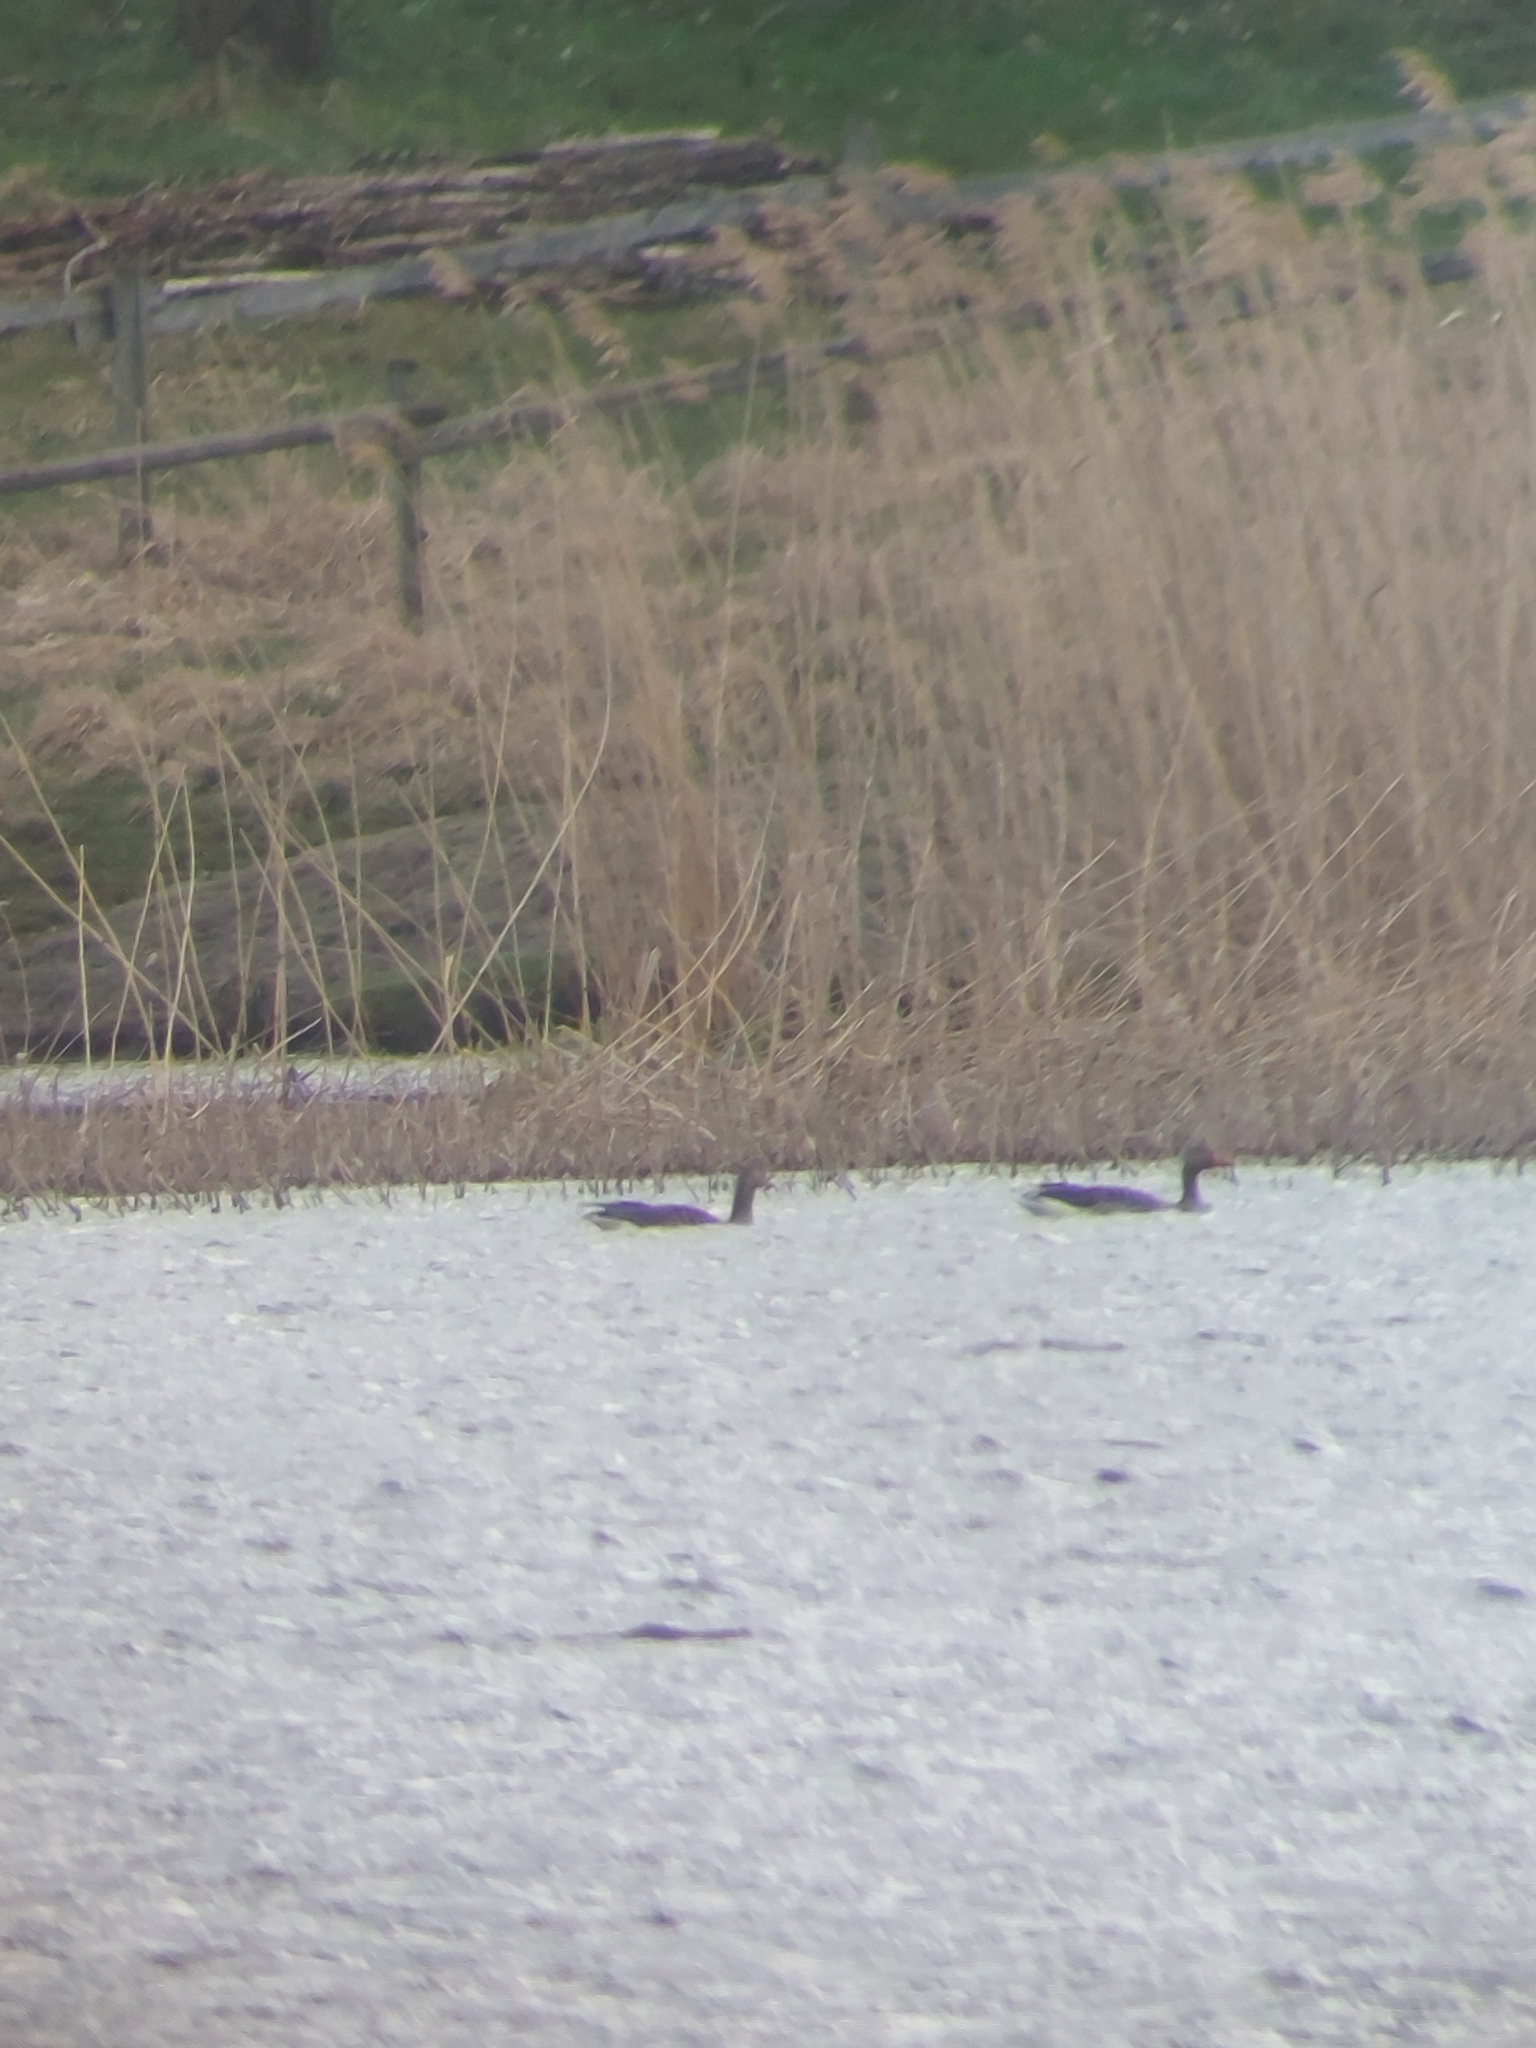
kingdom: Animalia
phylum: Chordata
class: Aves
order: Anseriformes
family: Anatidae
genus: Anser
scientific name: Anser anser
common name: Greylag goose
